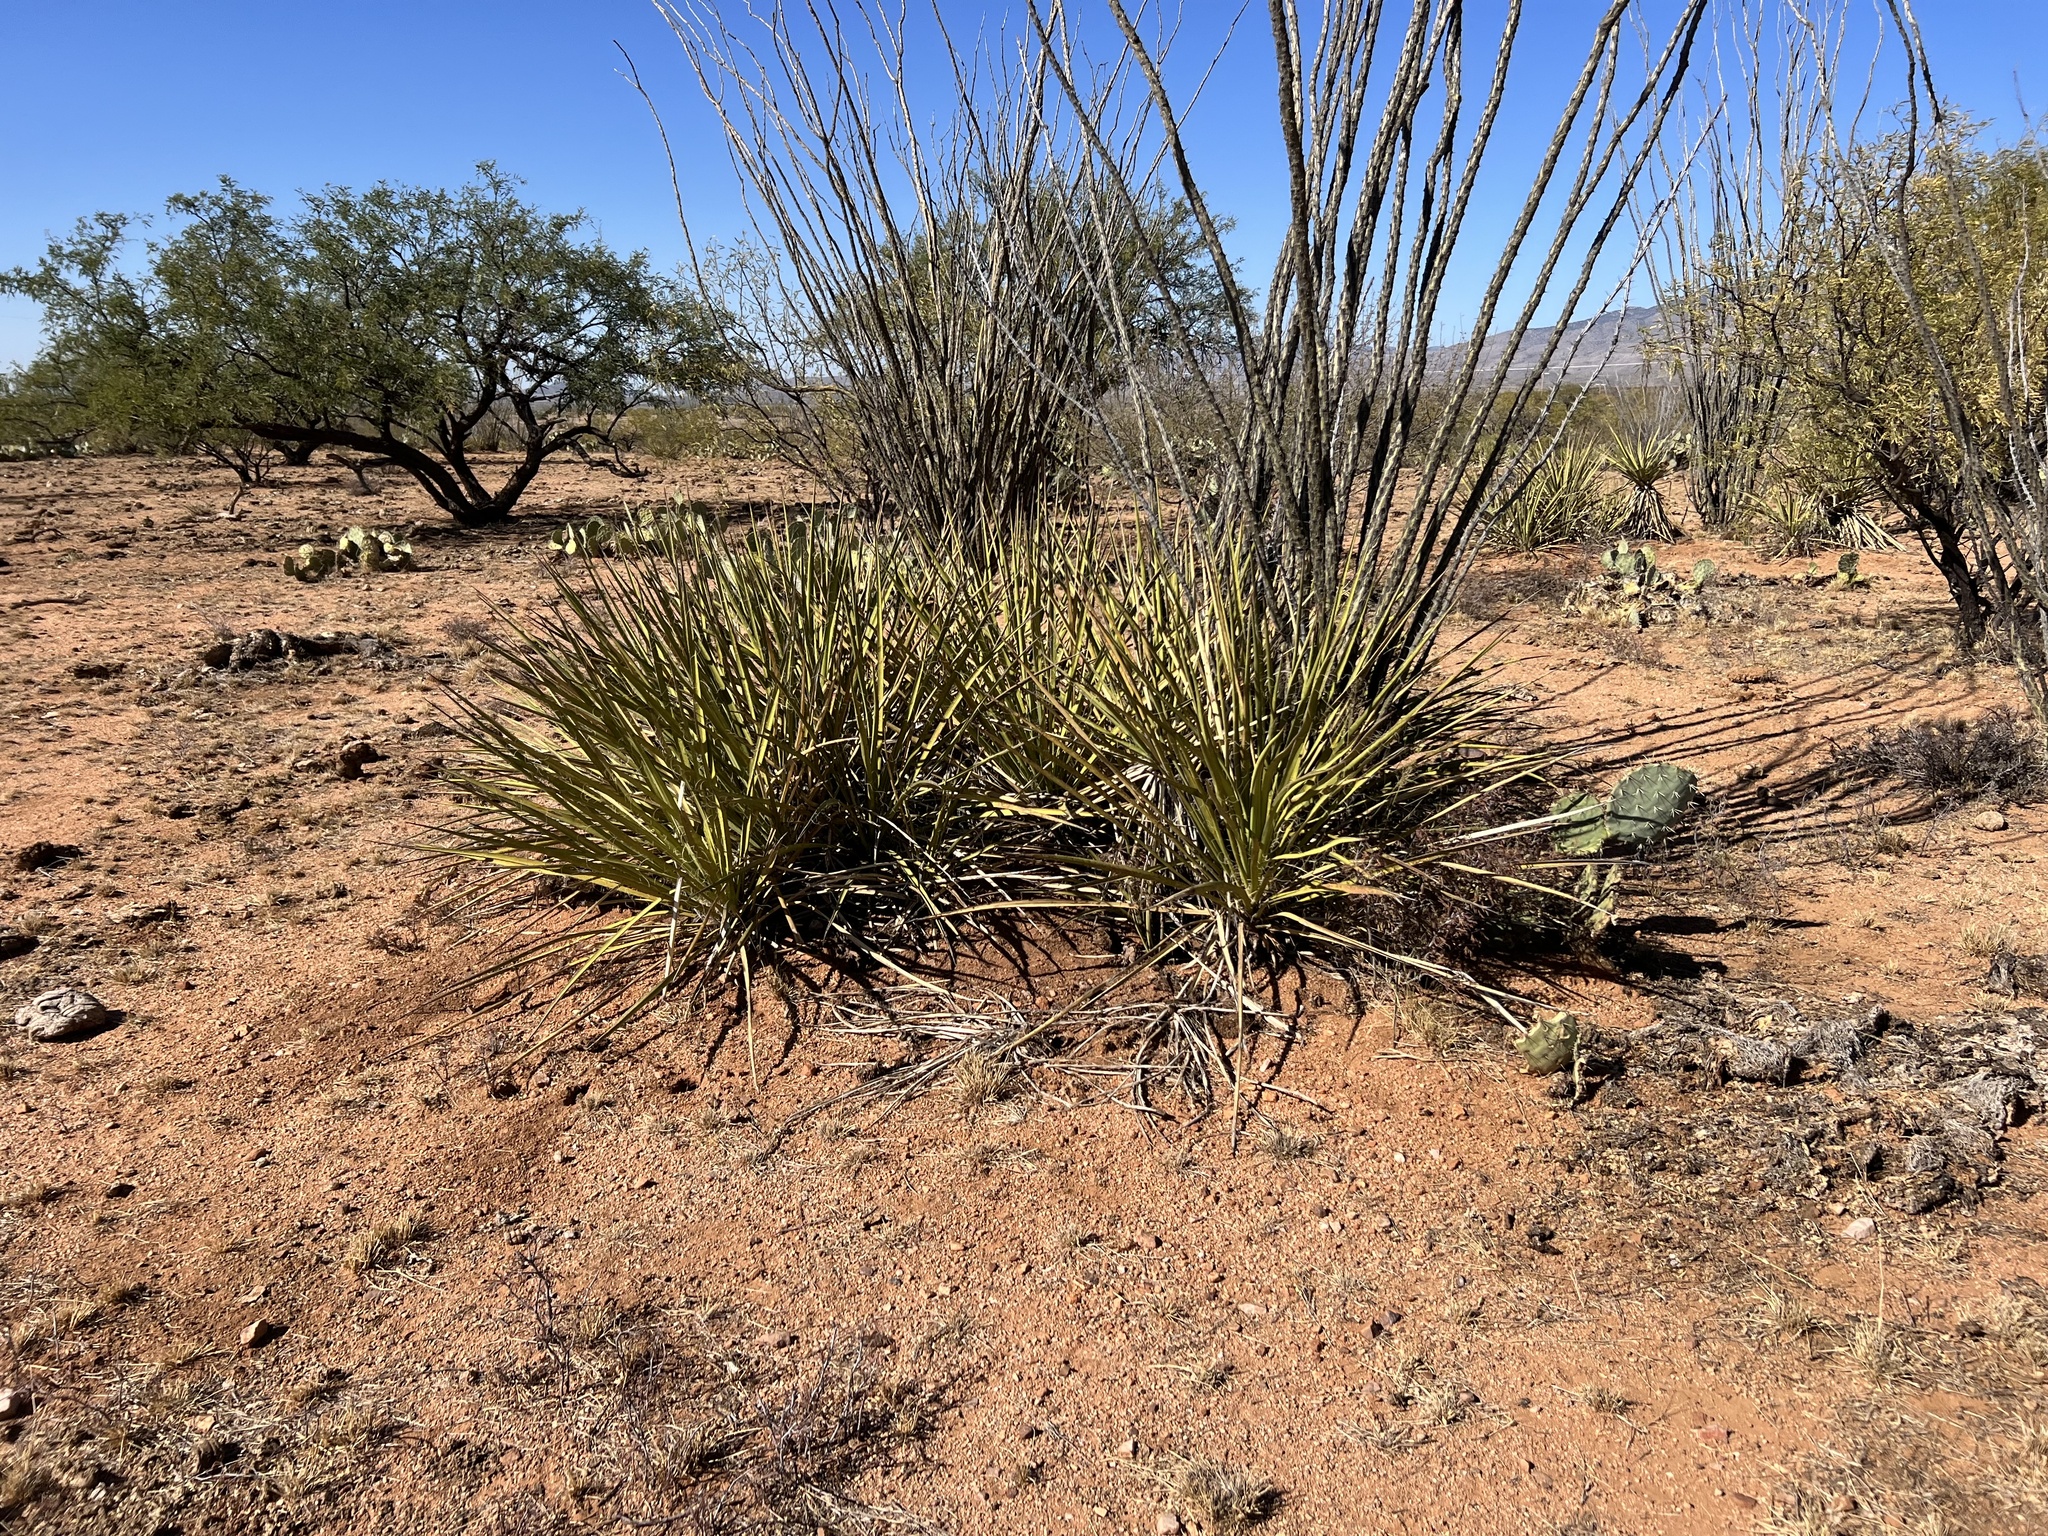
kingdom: Plantae
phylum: Tracheophyta
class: Liliopsida
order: Asparagales
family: Asparagaceae
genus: Yucca
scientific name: Yucca baccata
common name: Banana yucca
